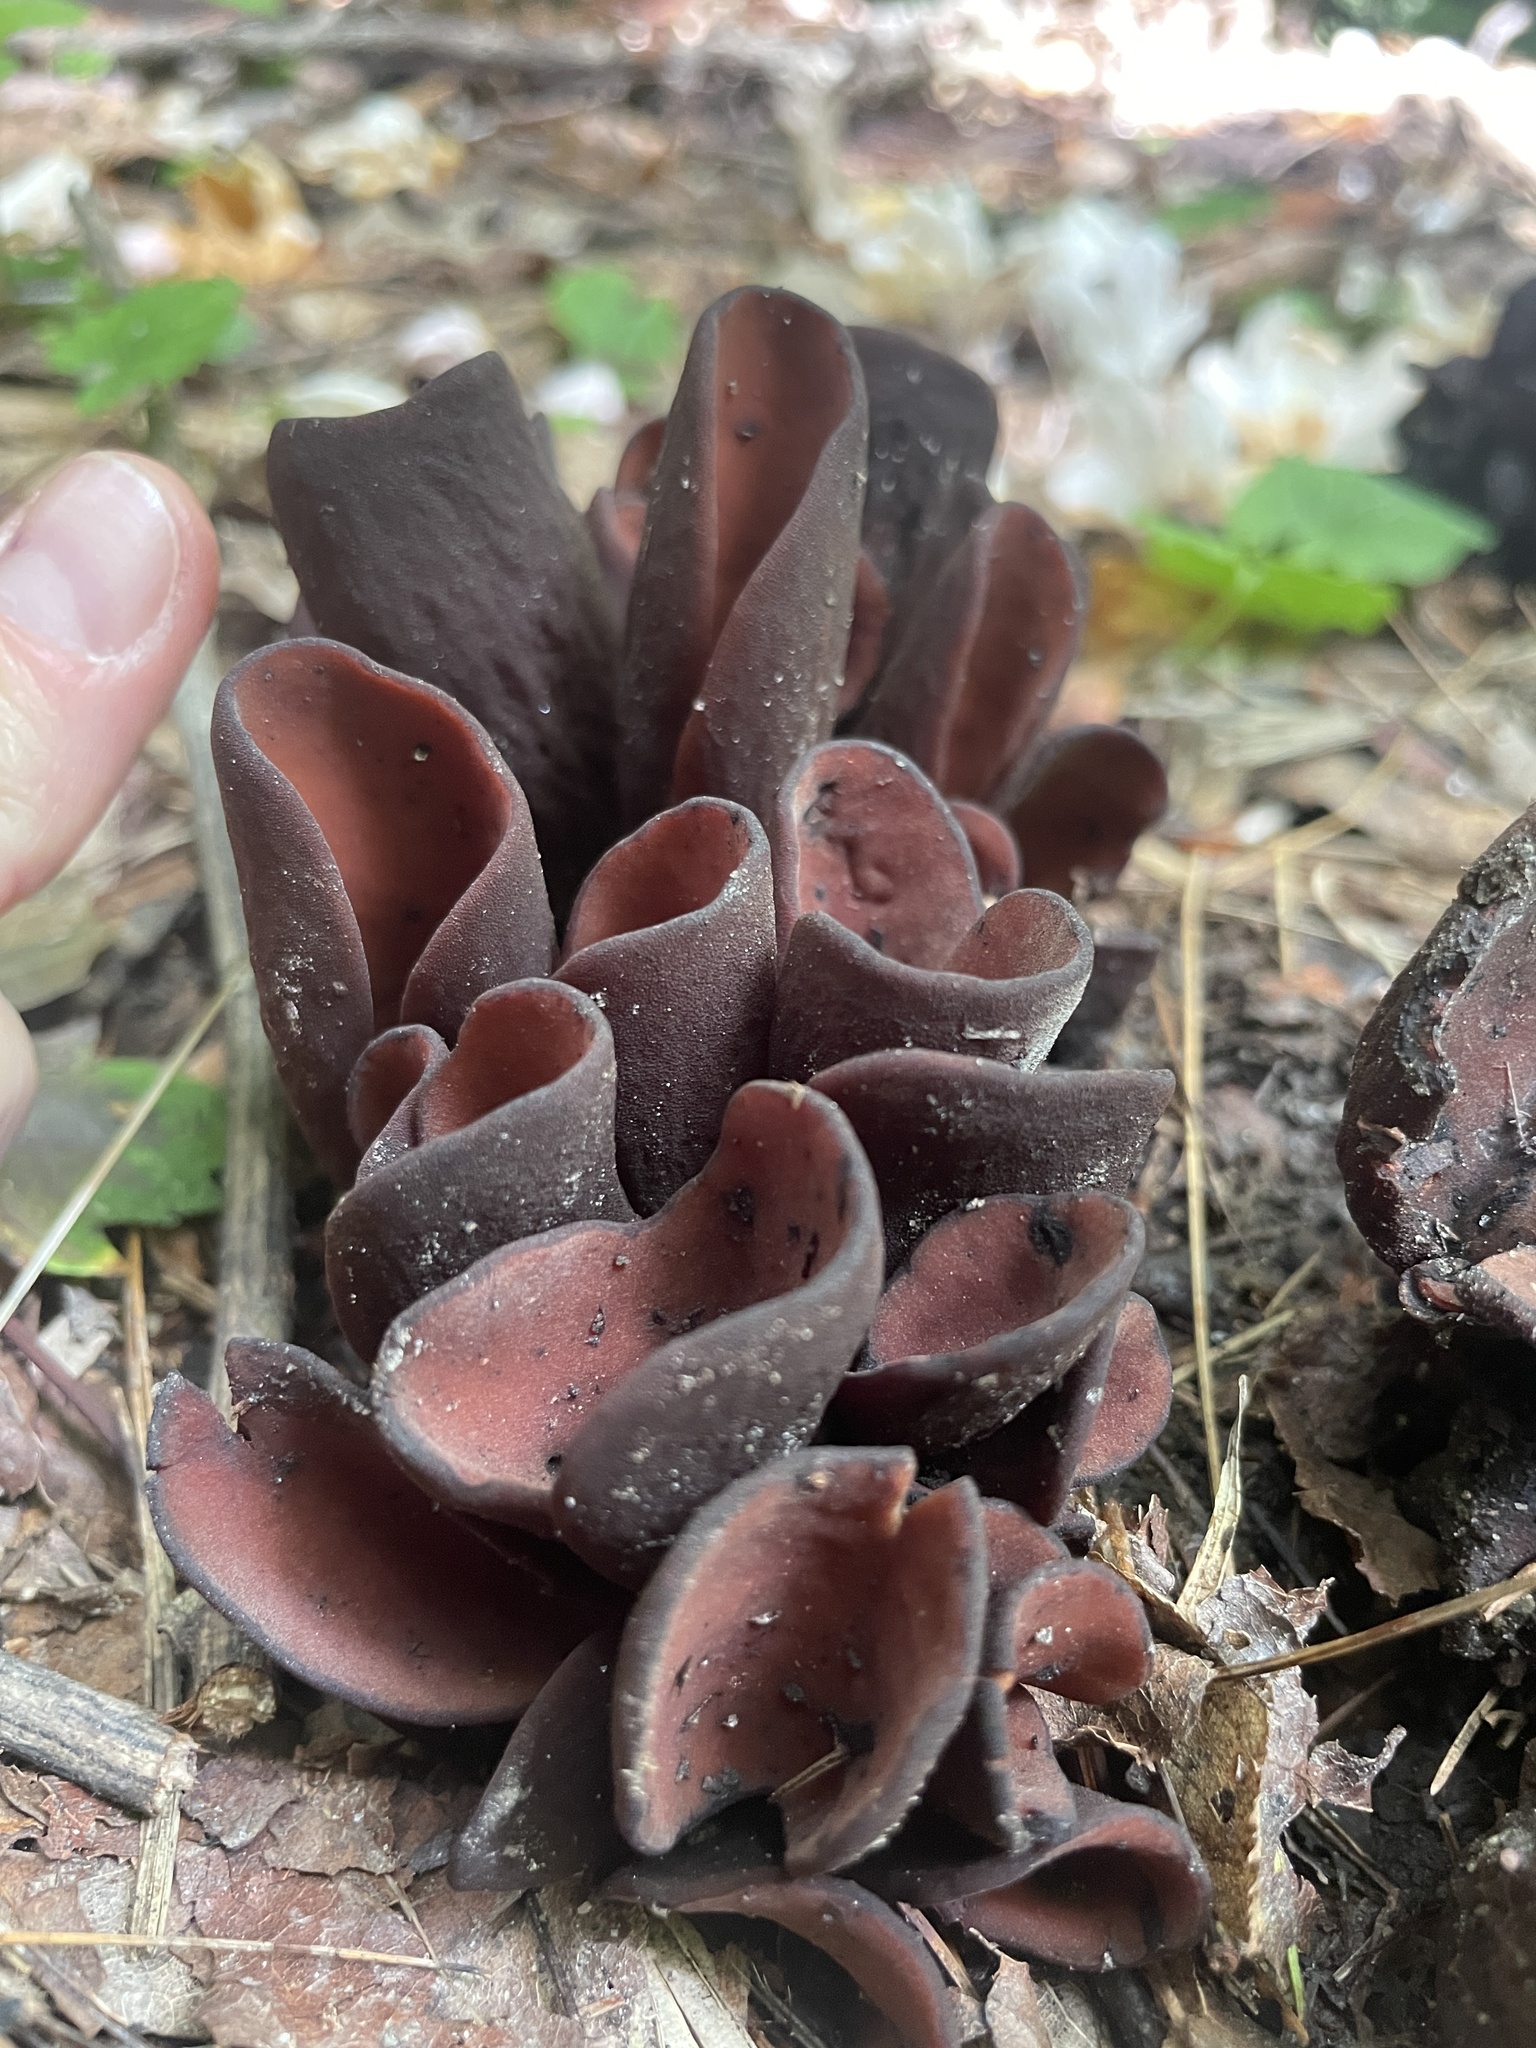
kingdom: Fungi
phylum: Ascomycota
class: Pezizomycetes
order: Pezizales
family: Wynneaceae
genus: Wynnea
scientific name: Wynnea americana
